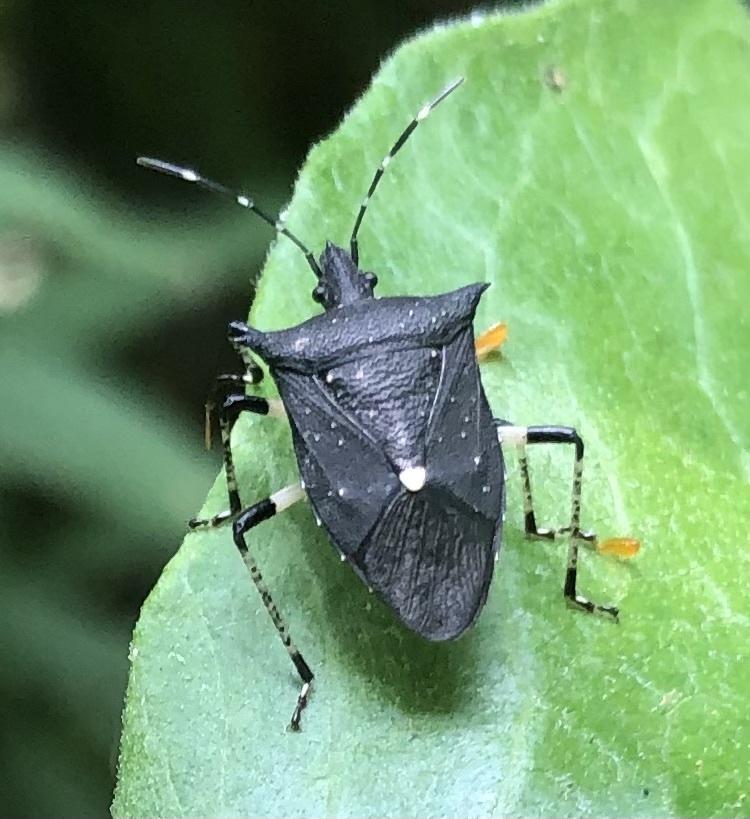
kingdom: Animalia
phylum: Arthropoda
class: Insecta
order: Hemiptera
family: Pentatomidae
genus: Proxys
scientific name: Proxys punctulatus
